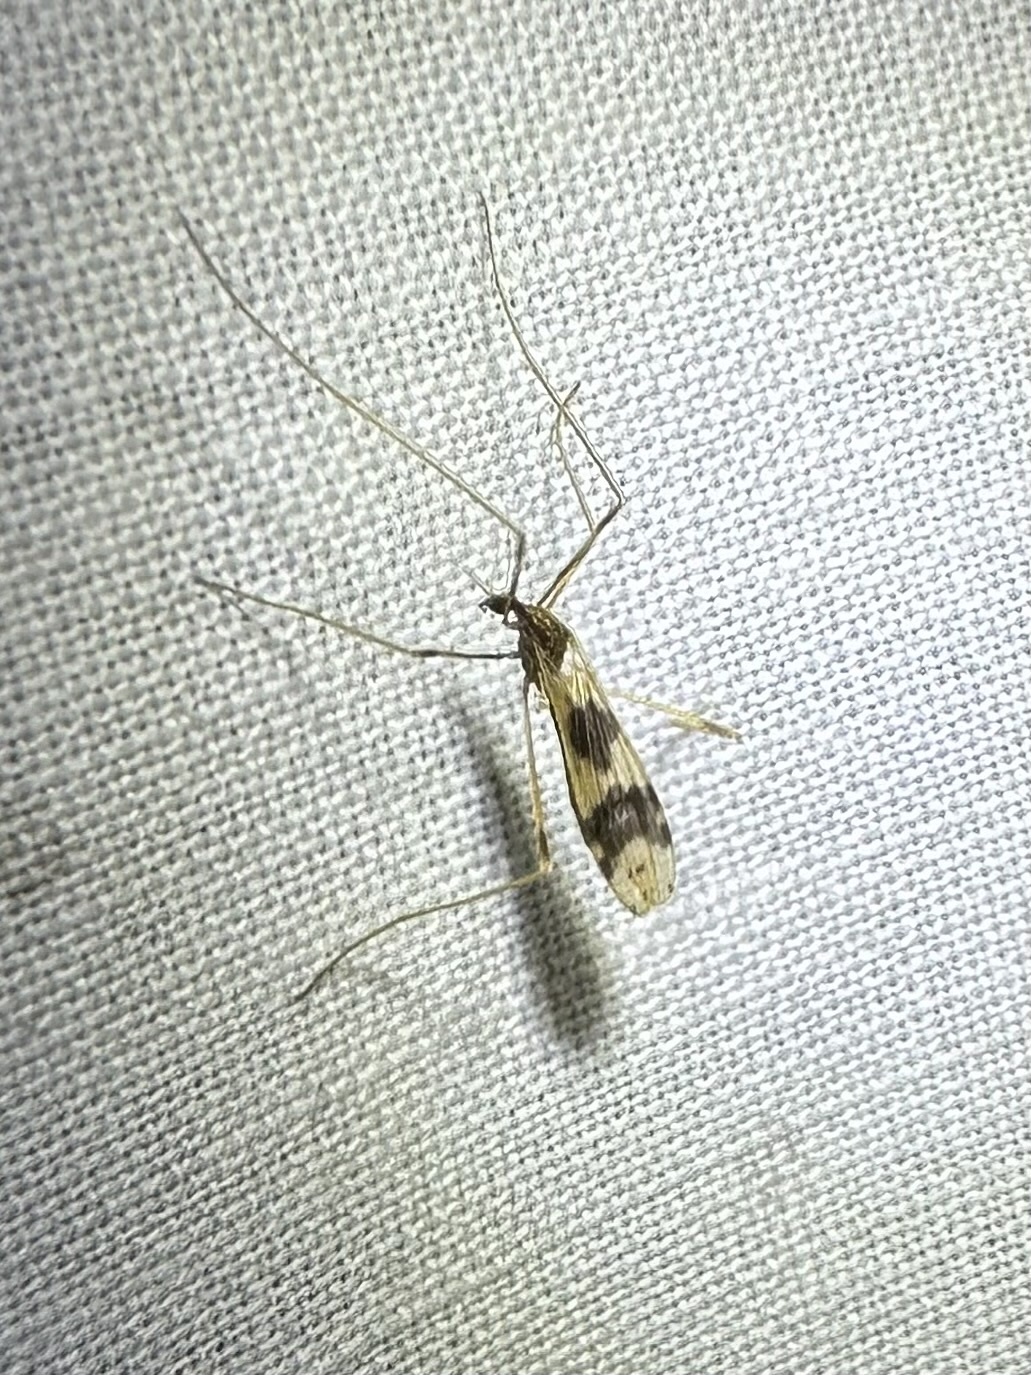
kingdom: Animalia
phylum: Arthropoda
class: Insecta
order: Diptera
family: Limoniidae
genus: Ilisia
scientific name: Ilisia venusta
